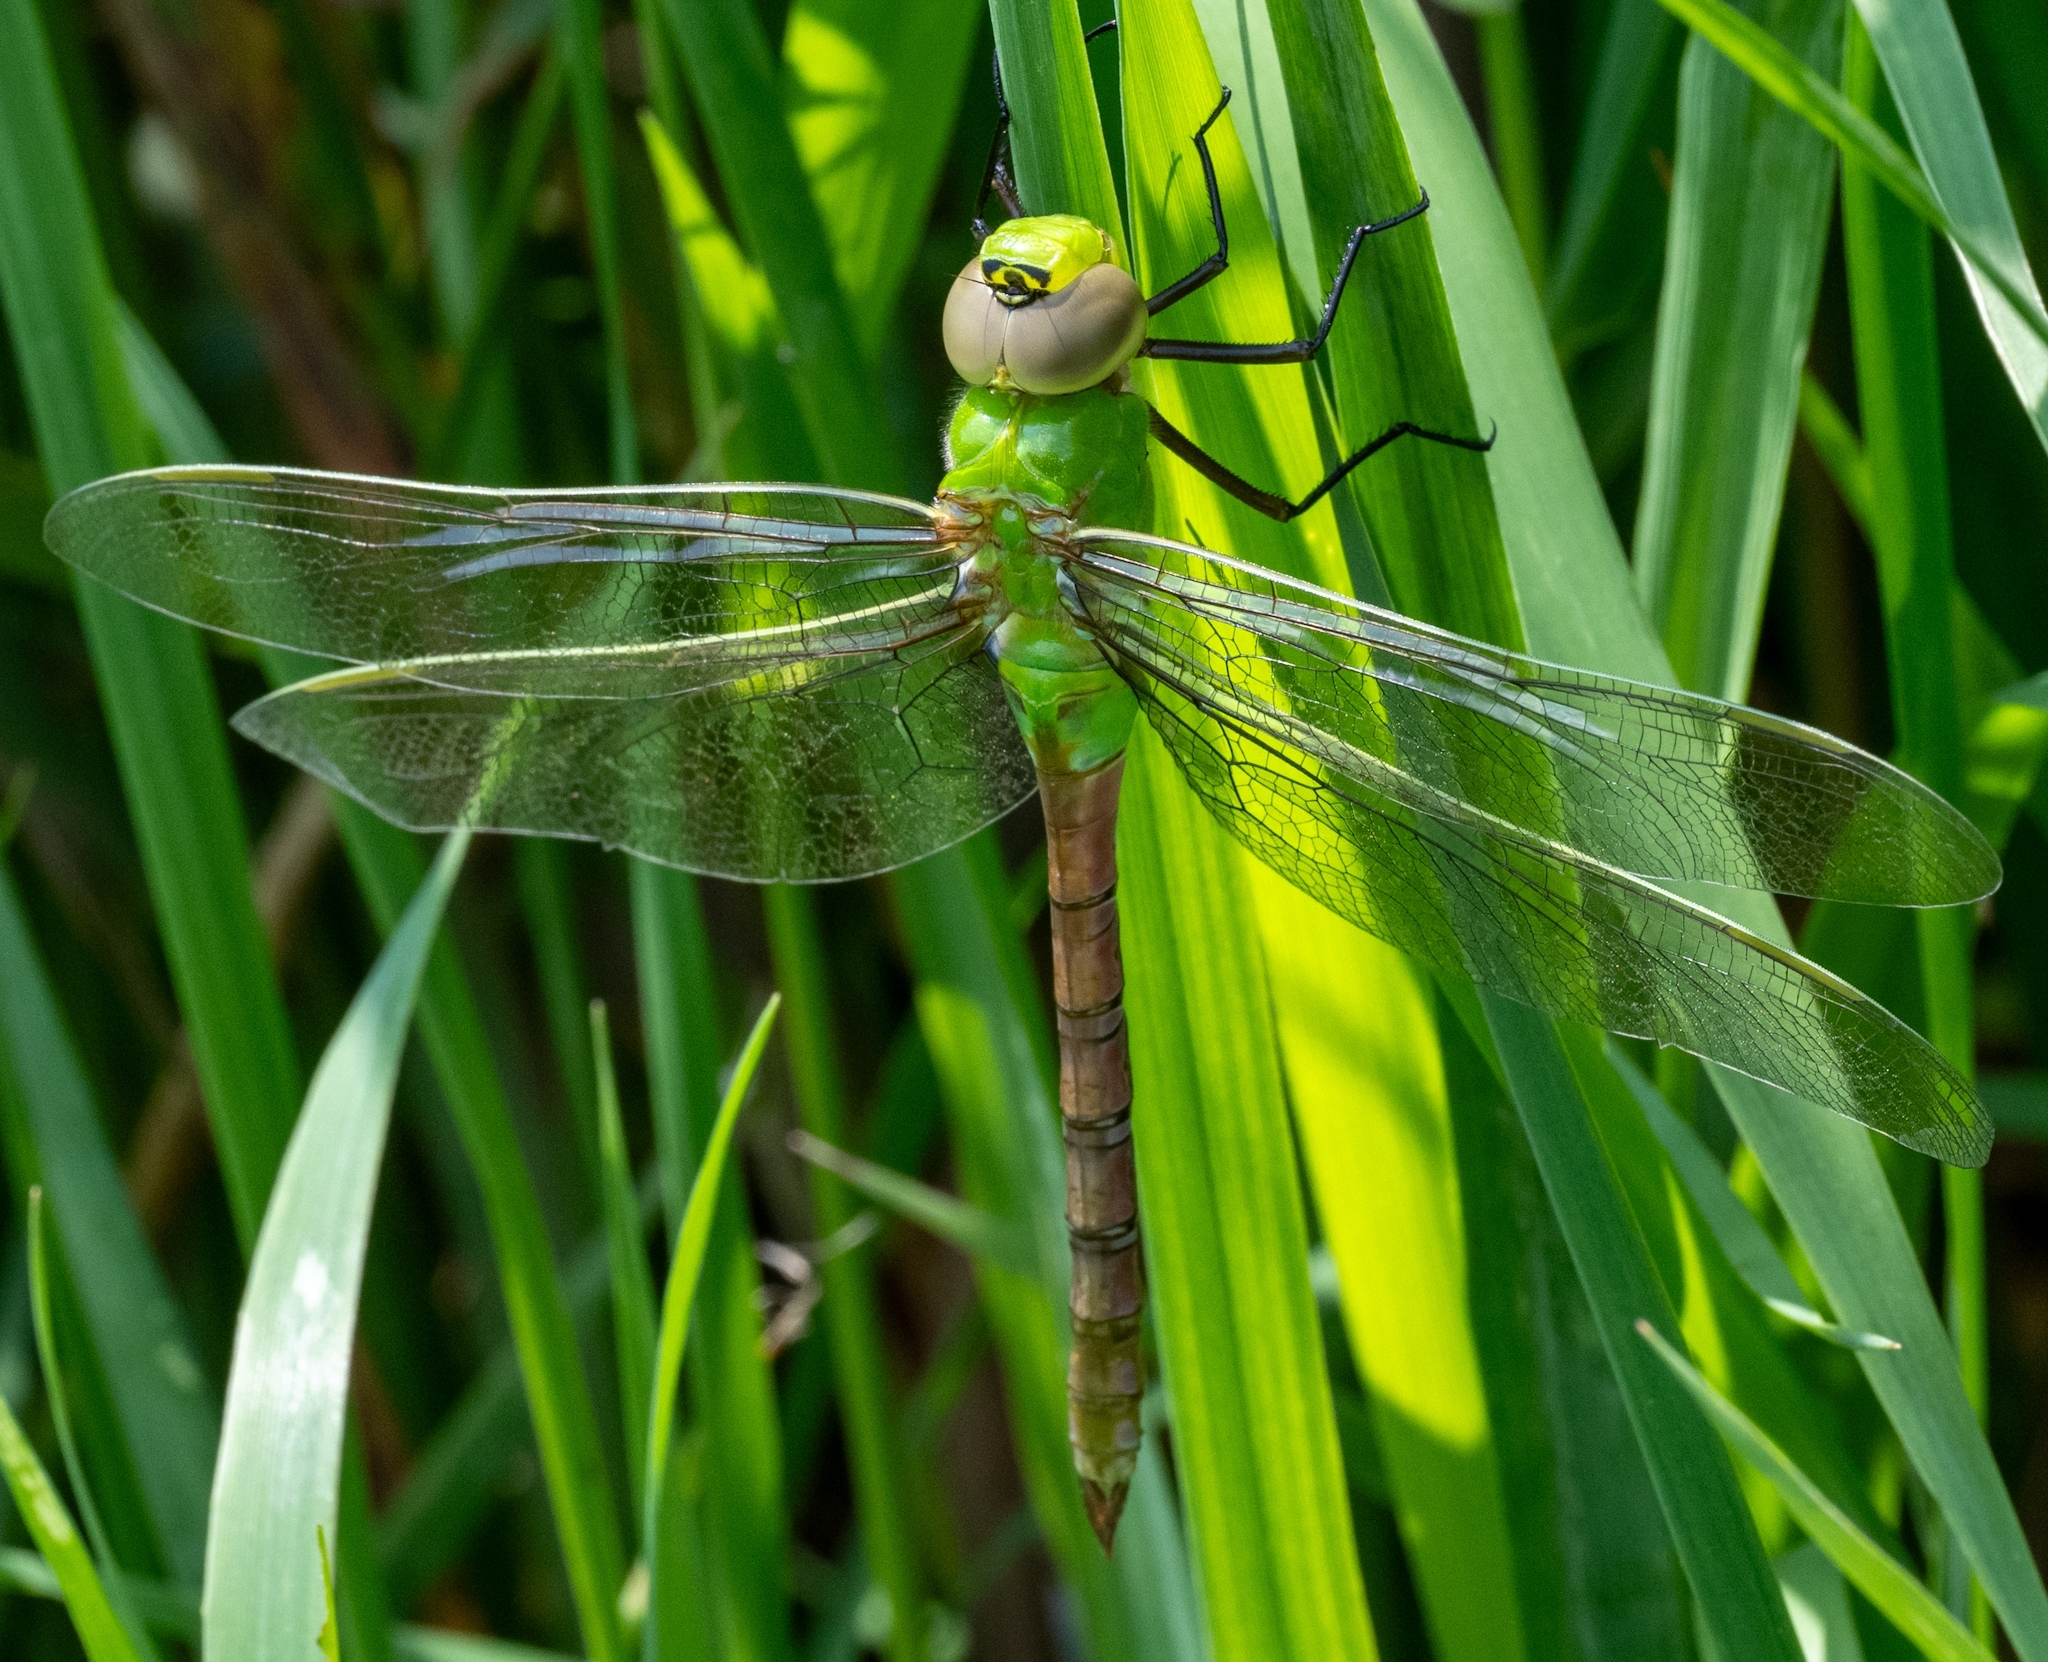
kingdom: Animalia
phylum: Arthropoda
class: Insecta
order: Odonata
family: Aeshnidae
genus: Anax
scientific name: Anax junius
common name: Common green darner
